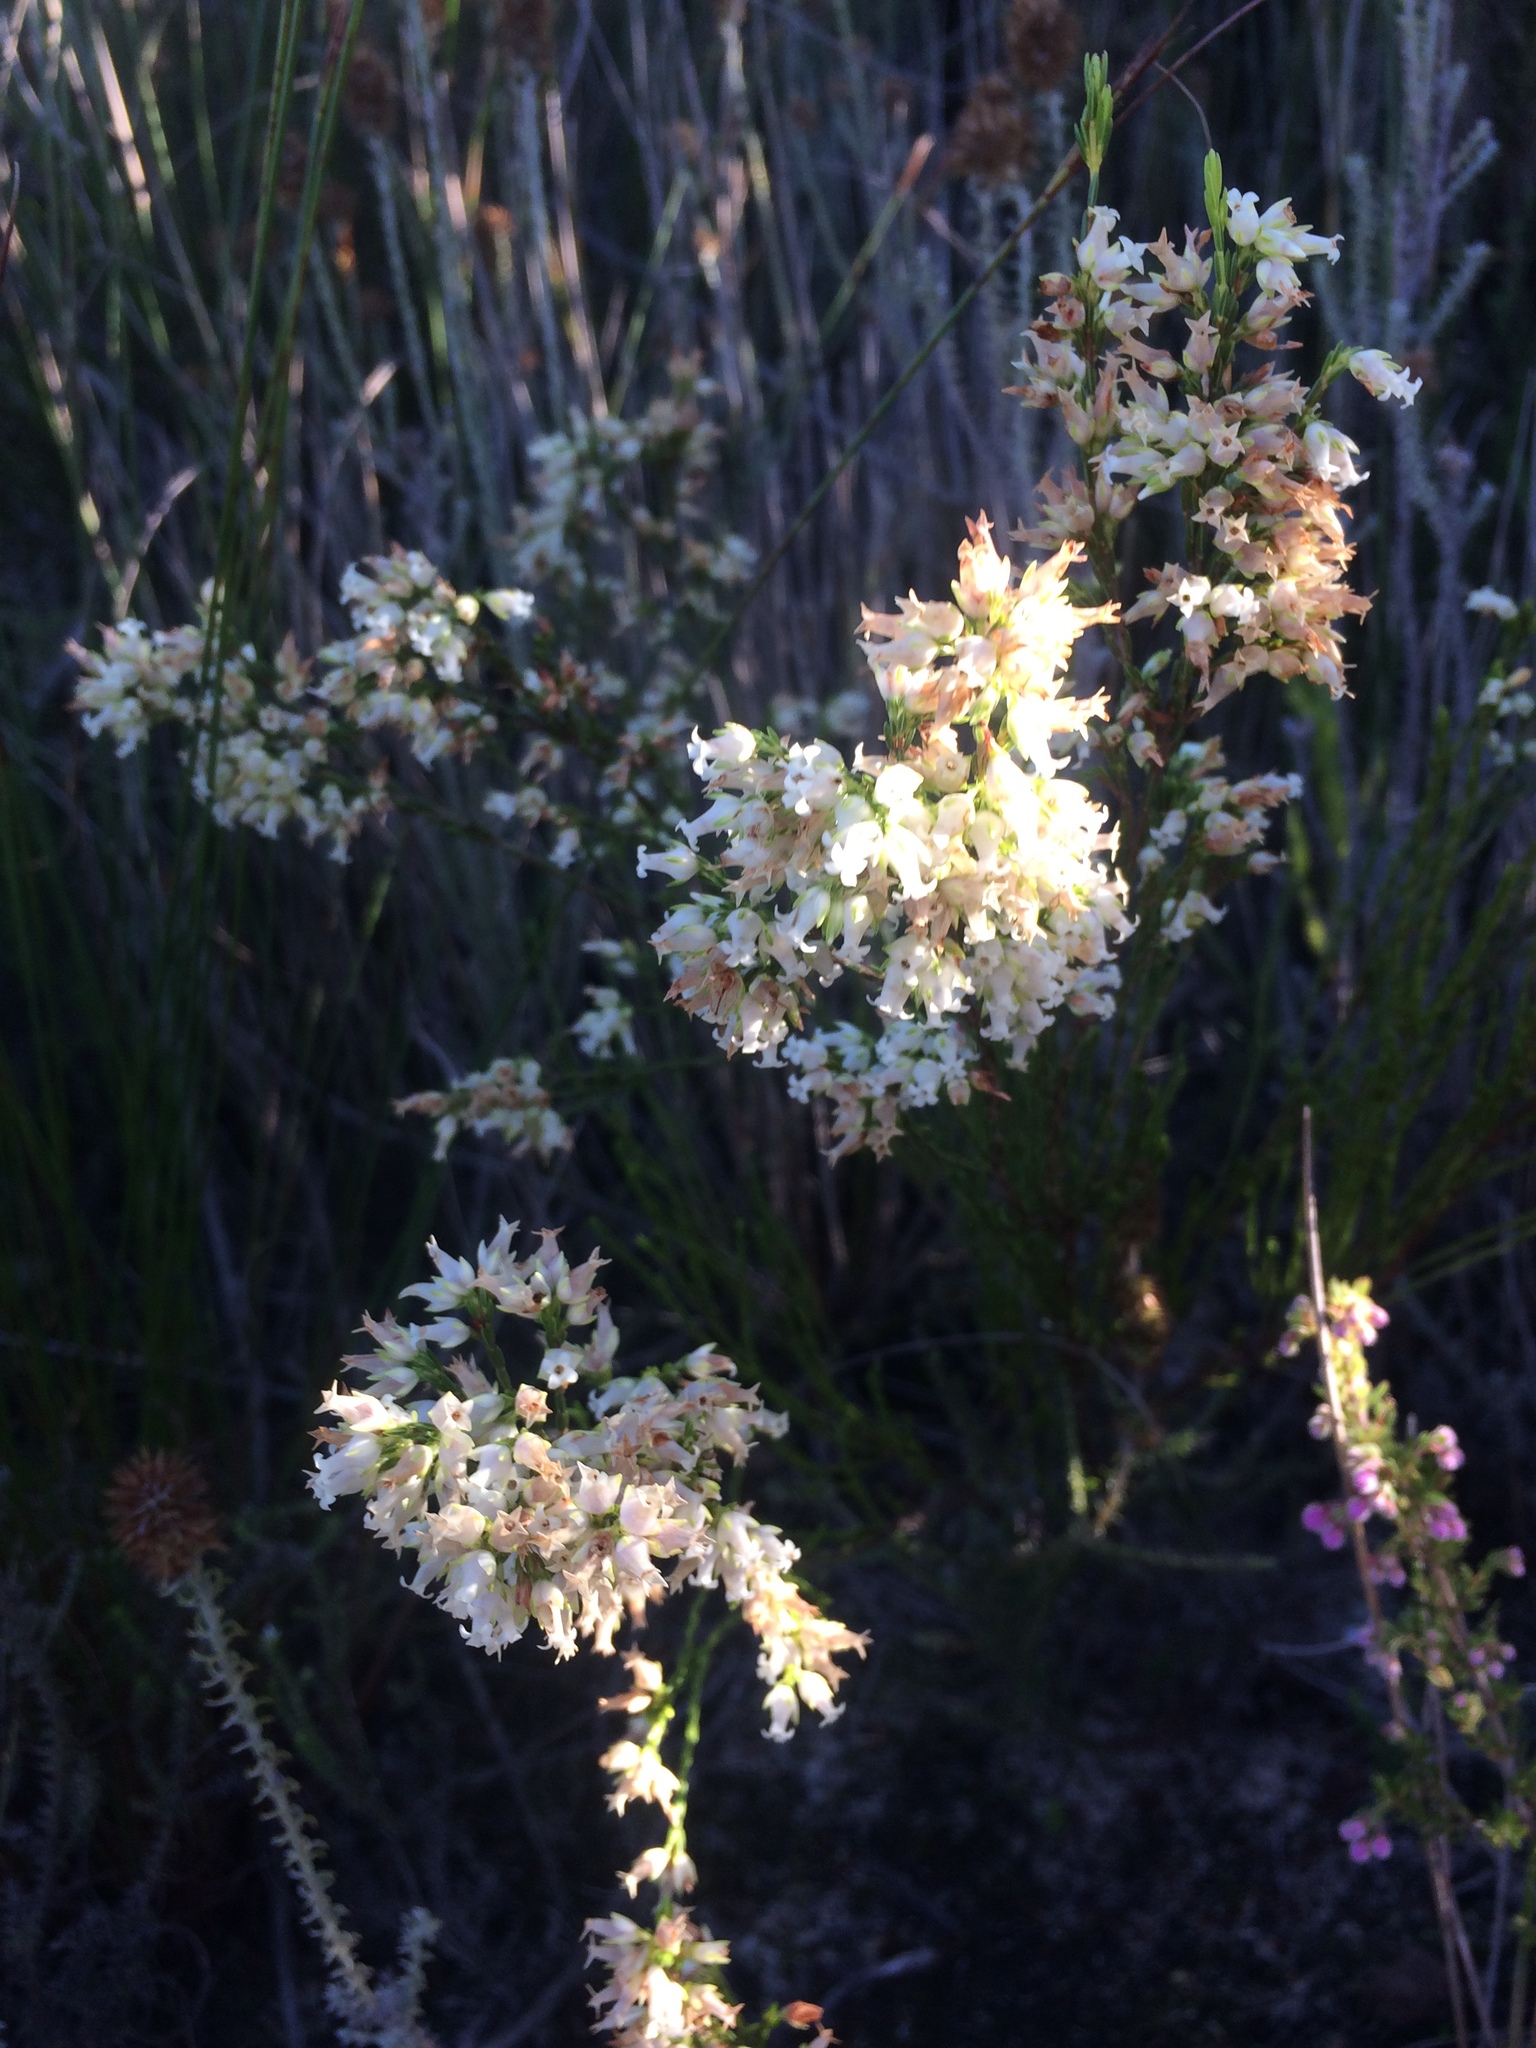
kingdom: Plantae
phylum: Tracheophyta
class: Magnoliopsida
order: Ericales
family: Ericaceae
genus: Erica
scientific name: Erica lutea
